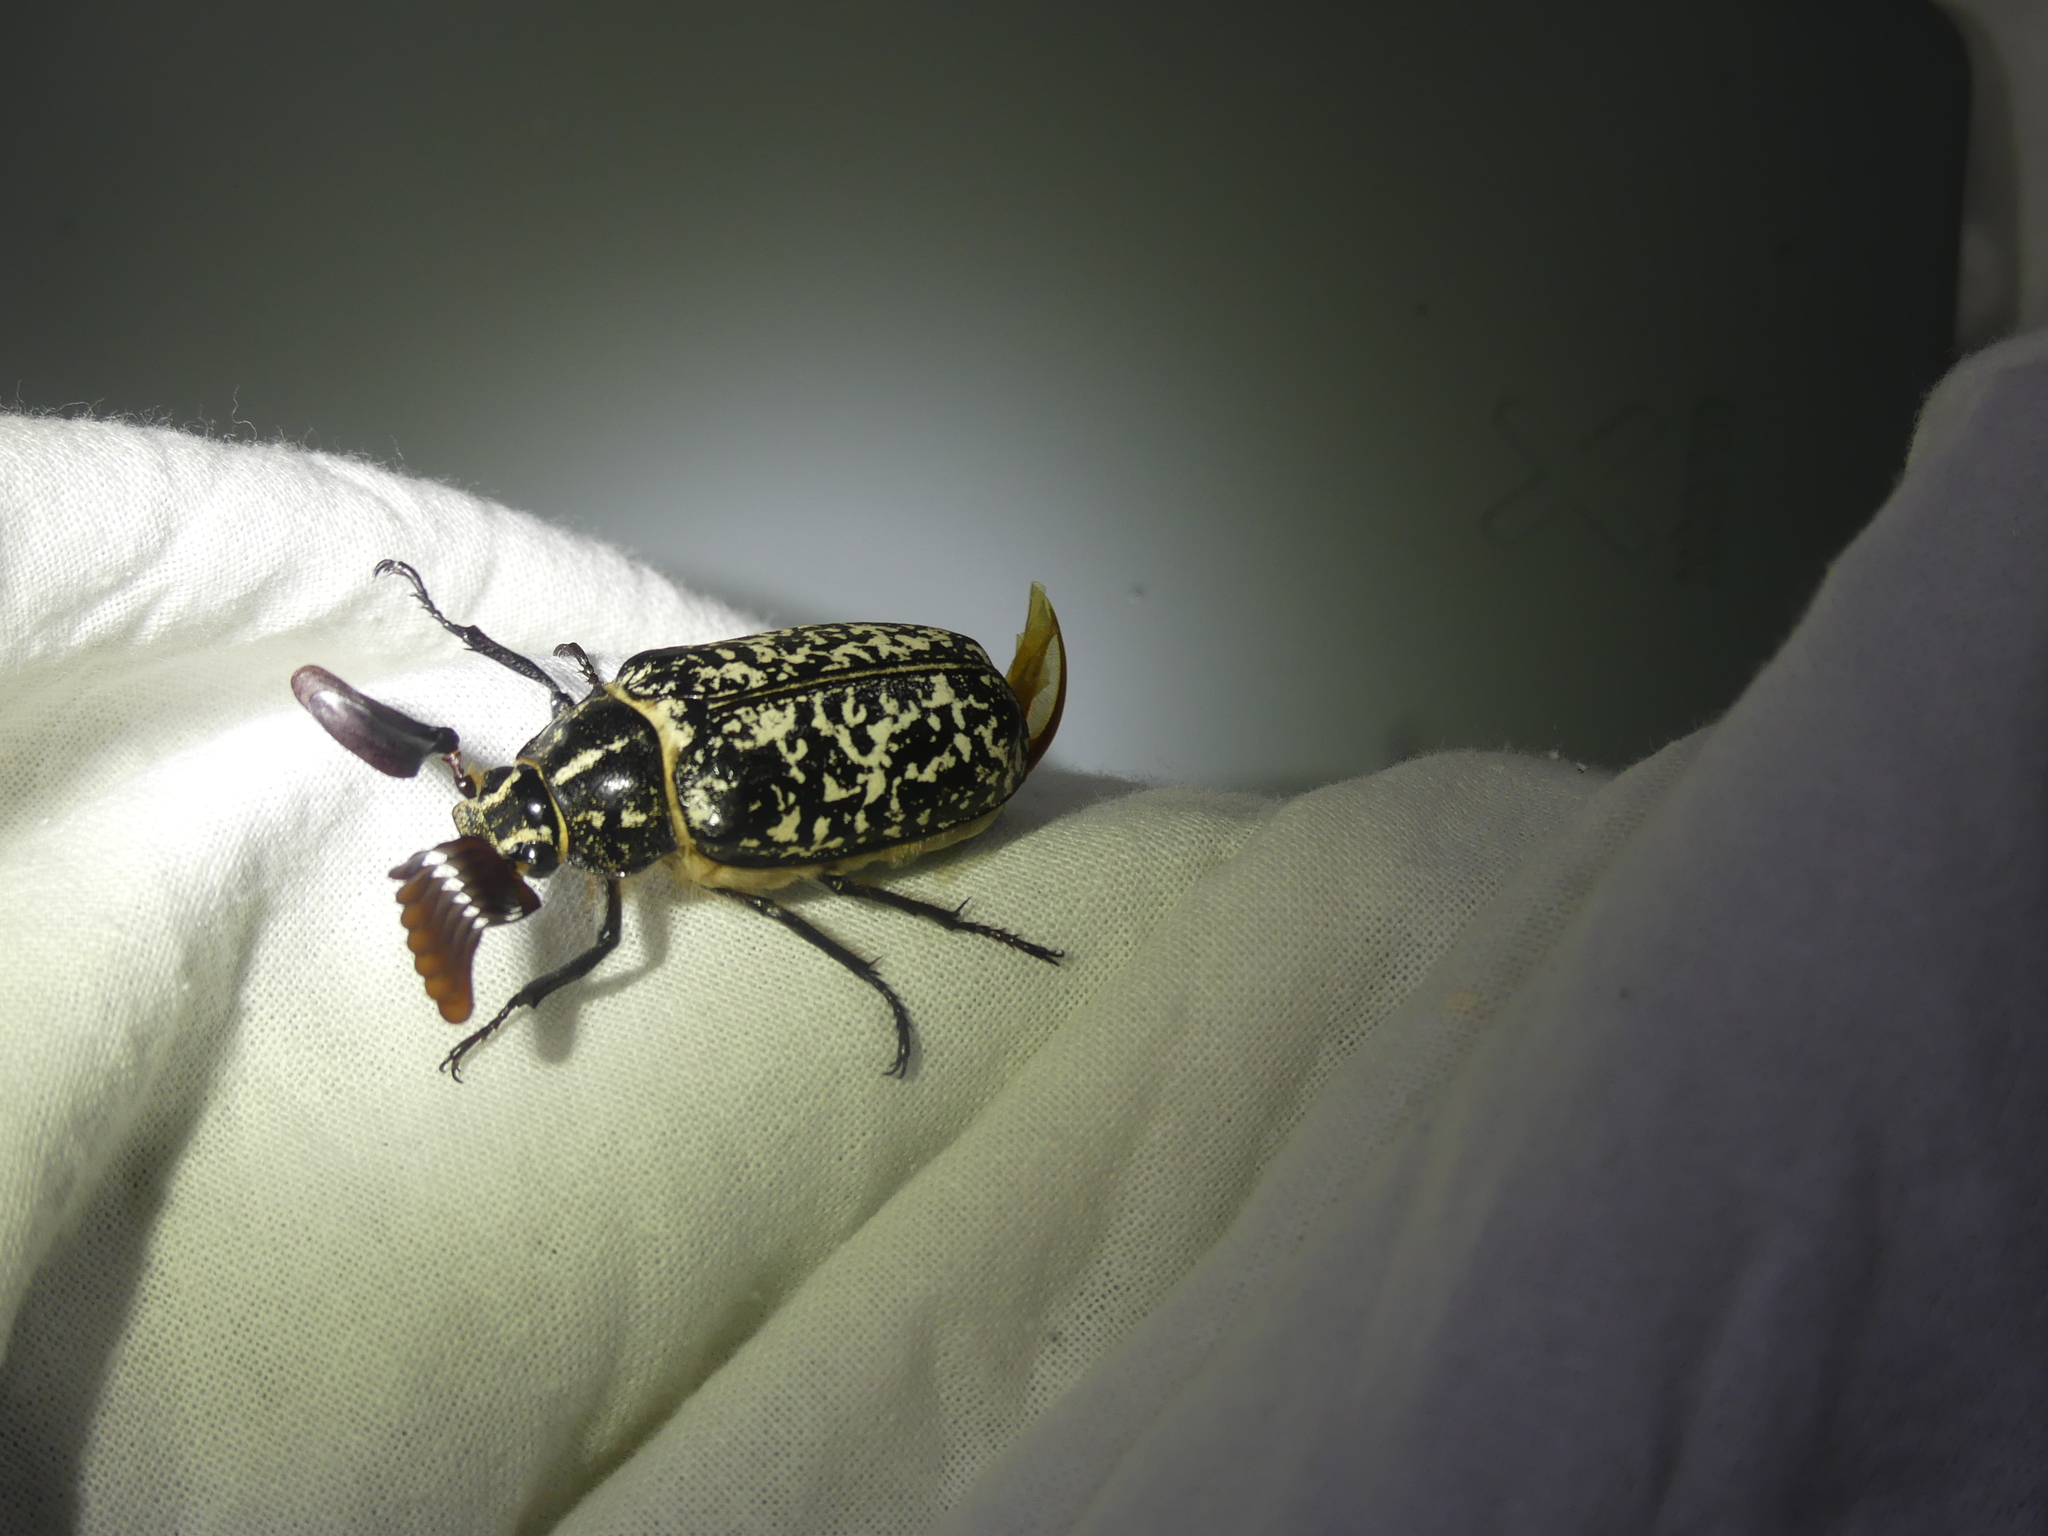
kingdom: Animalia
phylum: Arthropoda
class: Insecta
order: Coleoptera
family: Scarabaeidae
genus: Polyphylla
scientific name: Polyphylla fullo
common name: Pine chafer
